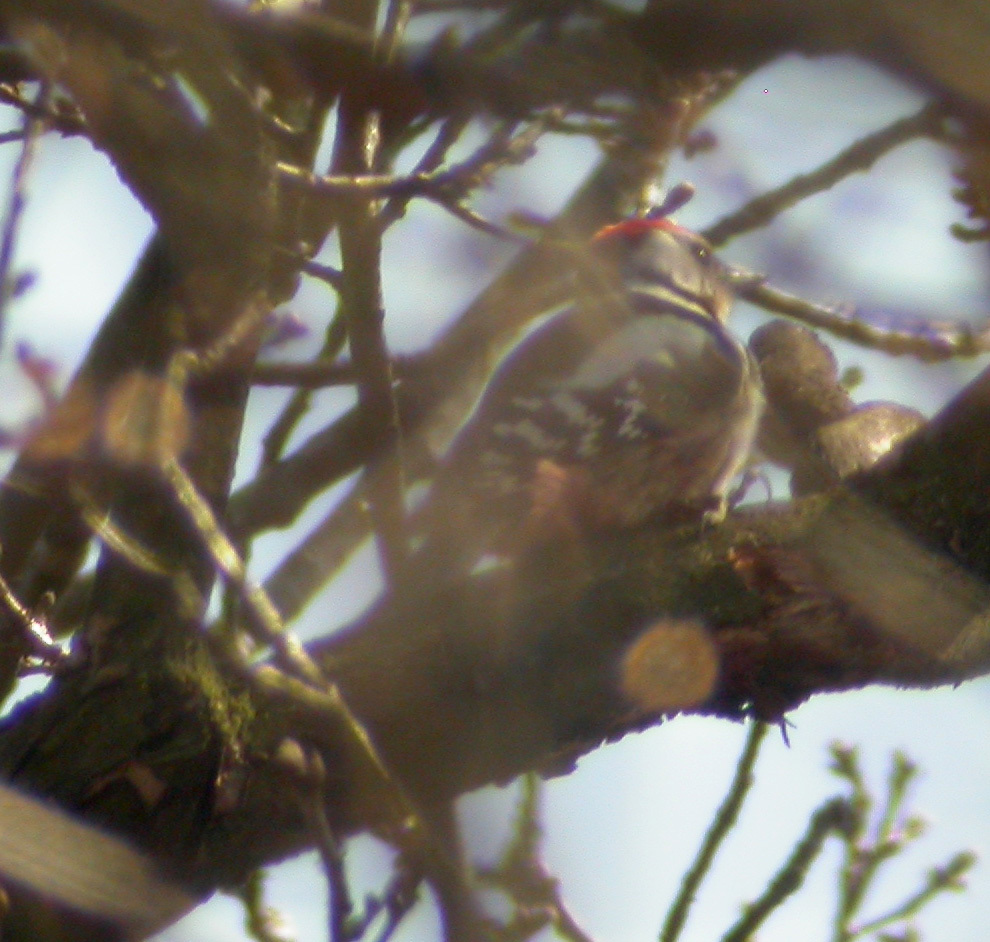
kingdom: Animalia
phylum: Chordata
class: Aves
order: Piciformes
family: Picidae
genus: Dendrocoptes
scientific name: Dendrocoptes medius
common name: Middle spotted woodpecker
